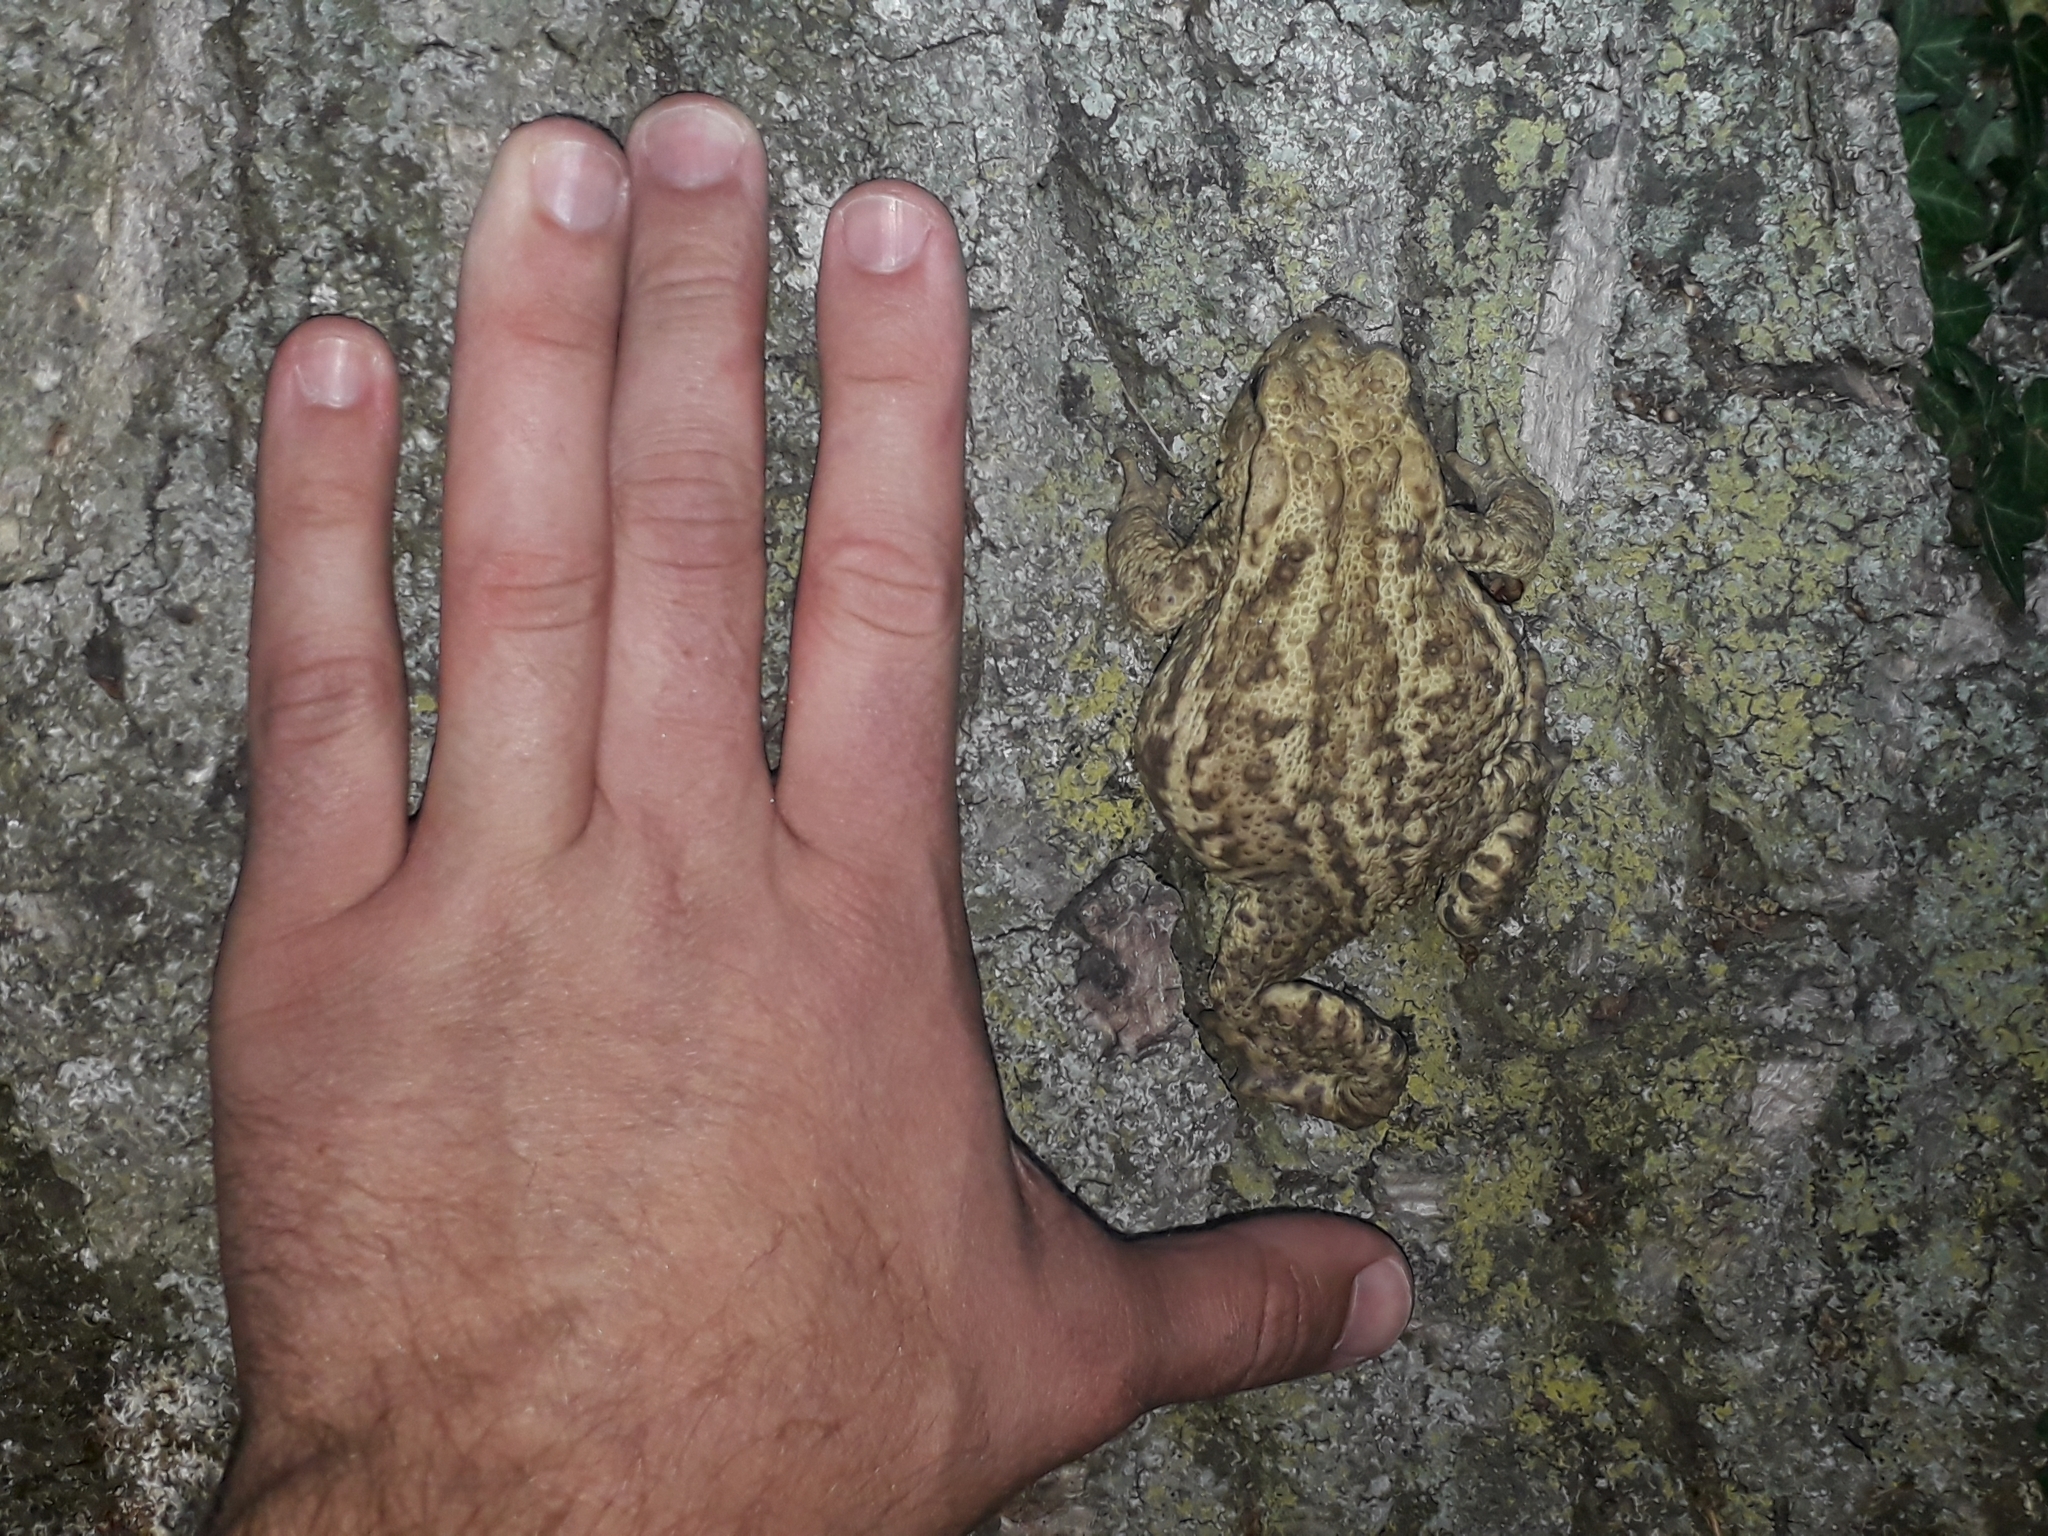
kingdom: Animalia
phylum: Chordata
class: Amphibia
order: Anura
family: Bufonidae
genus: Bufo
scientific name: Bufo bufo
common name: Common toad
